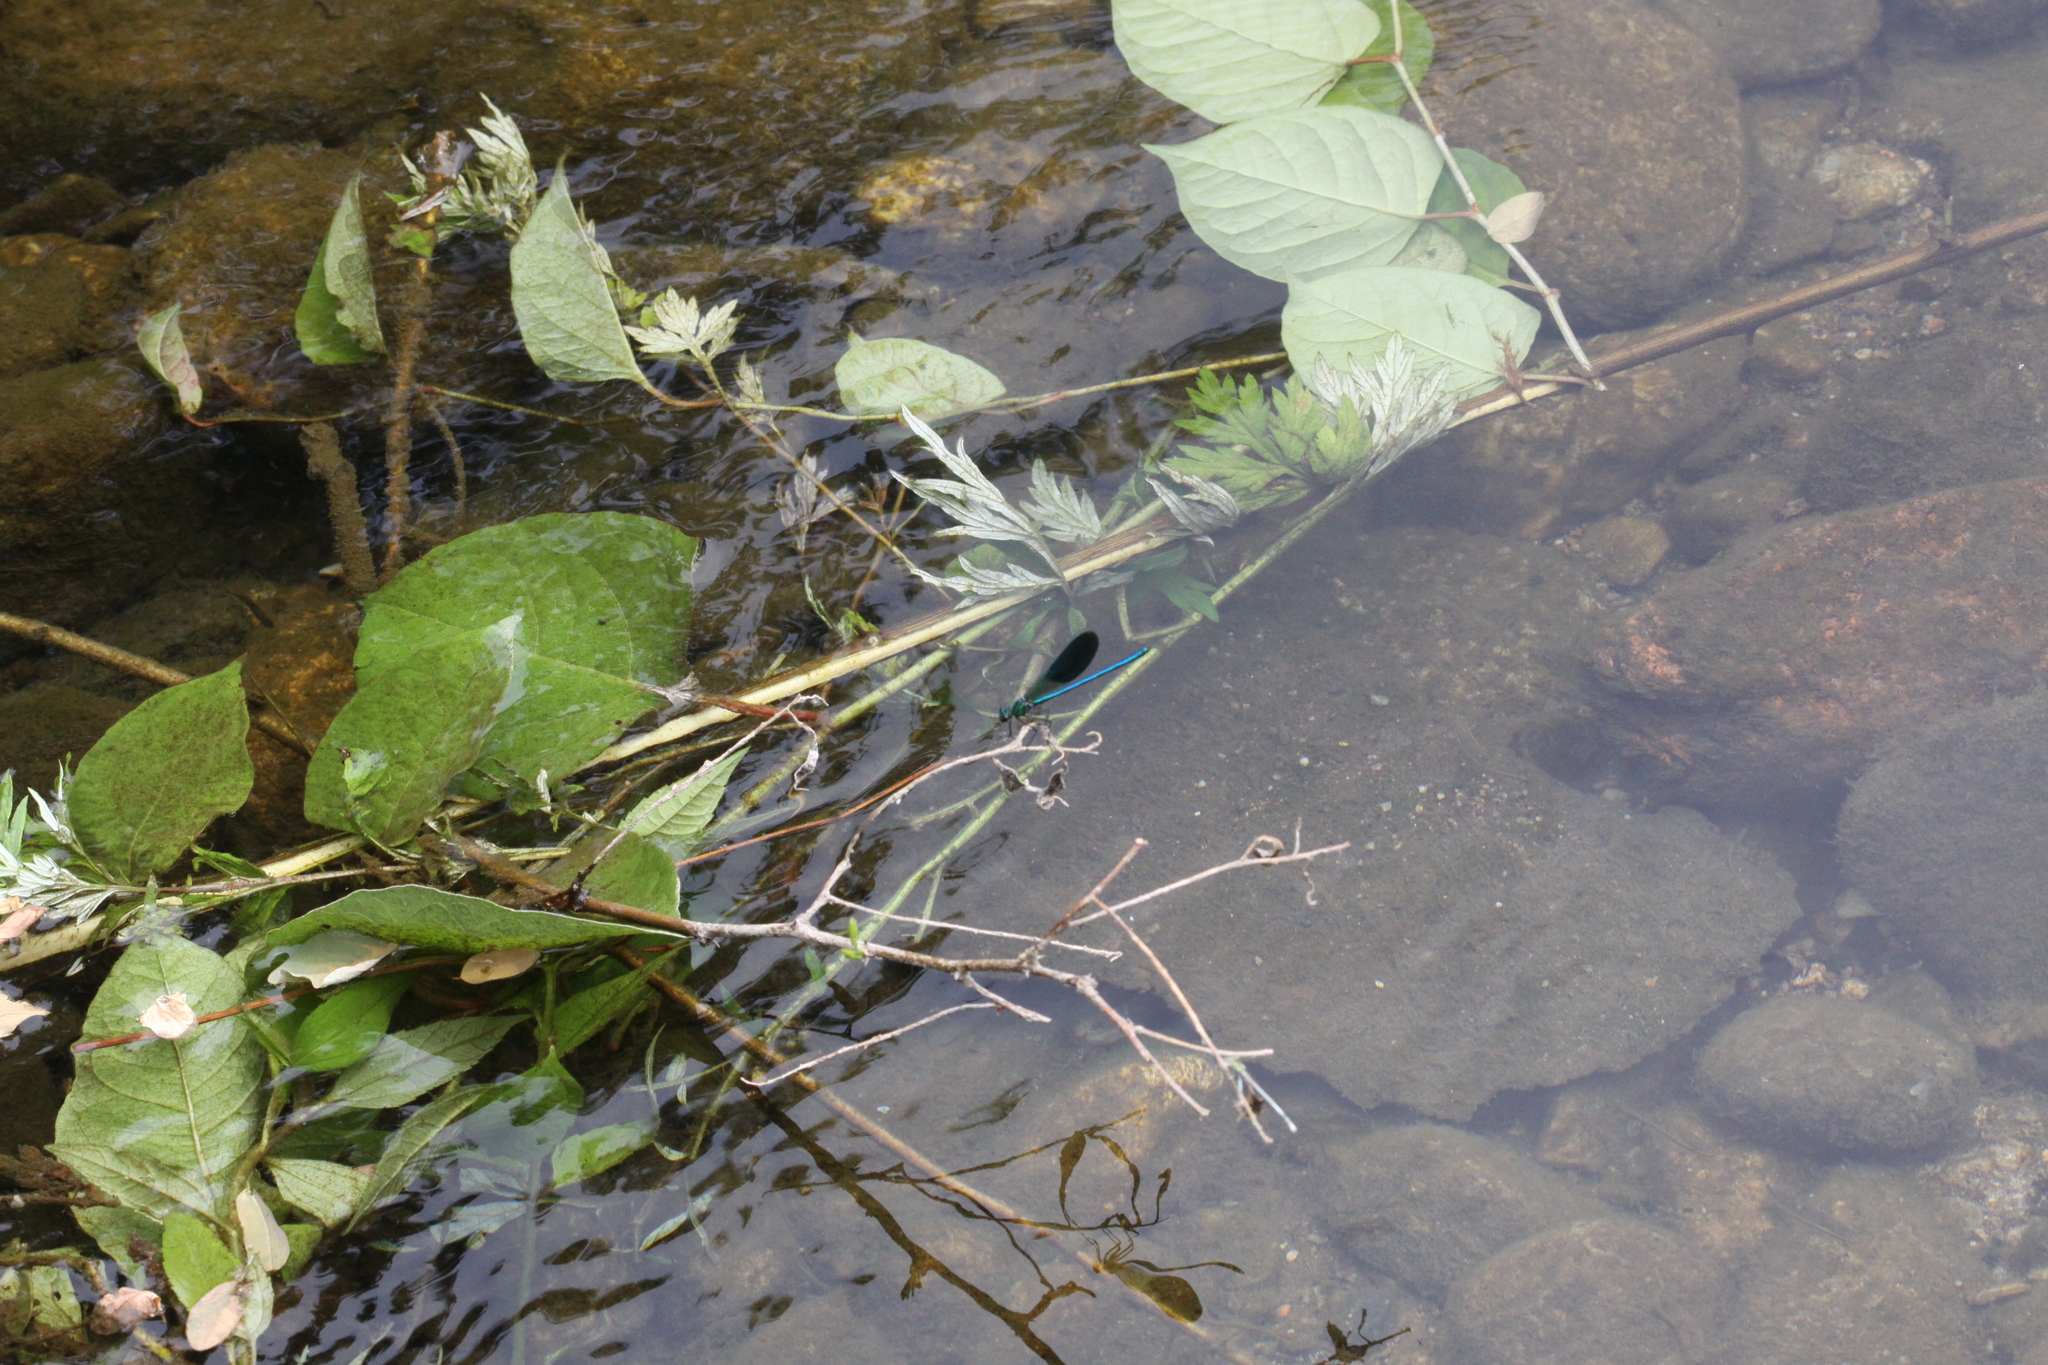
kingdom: Animalia
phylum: Arthropoda
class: Insecta
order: Odonata
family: Calopterygidae
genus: Calopteryx
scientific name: Calopteryx xanthostoma
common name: Western demoiselle
